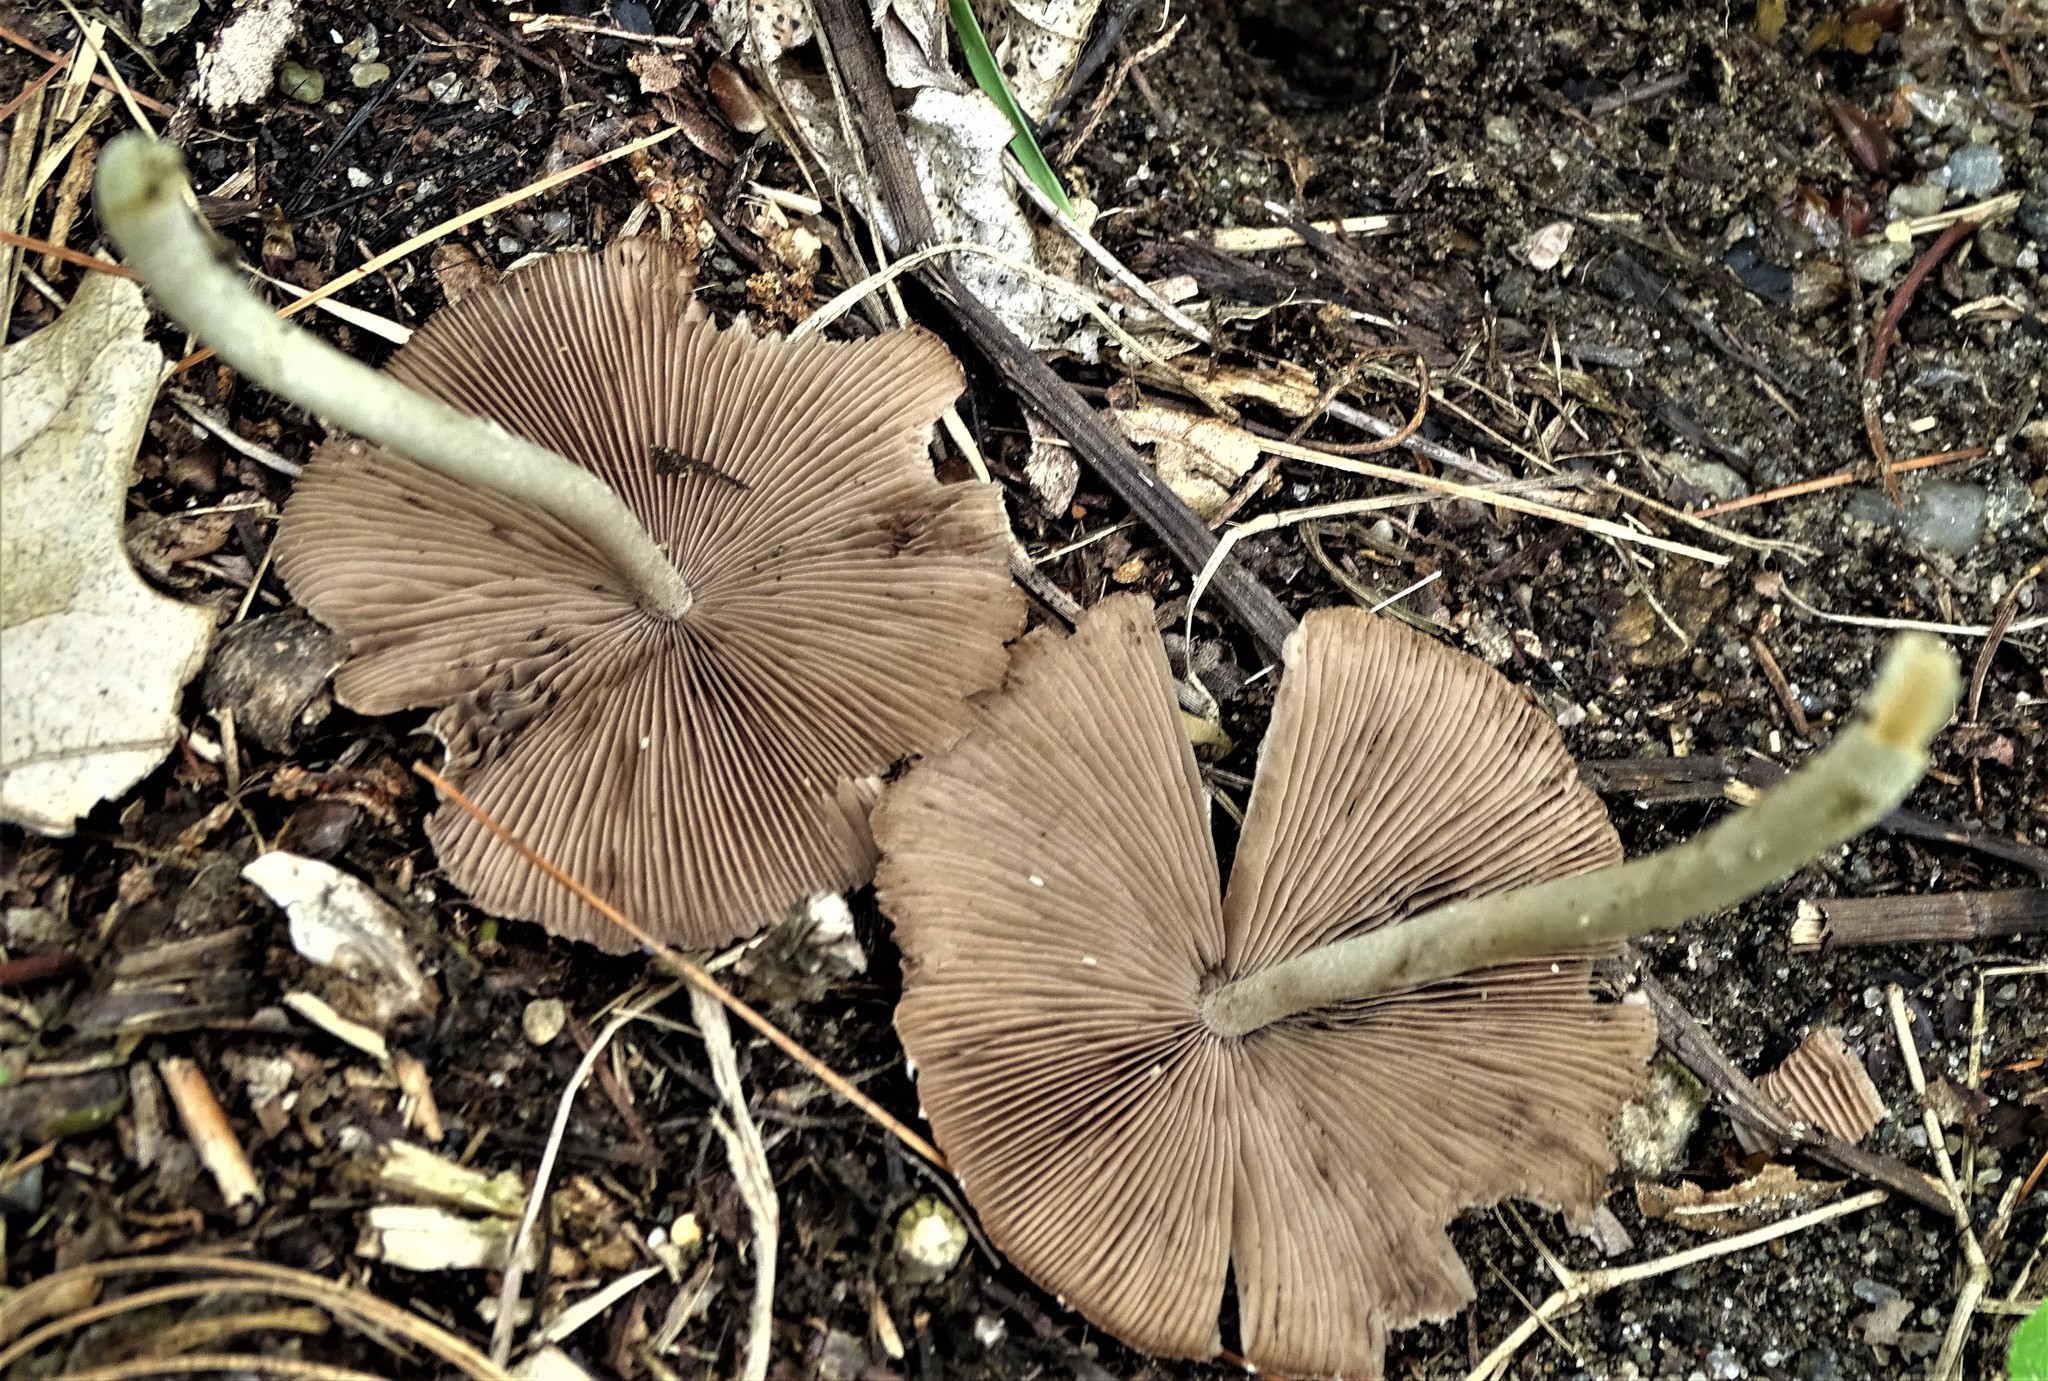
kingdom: Fungi
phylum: Basidiomycota
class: Agaricomycetes
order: Agaricales
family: Entolomataceae
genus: Entoloma
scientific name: Entoloma strictius
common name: Straight-stalked entoloma
